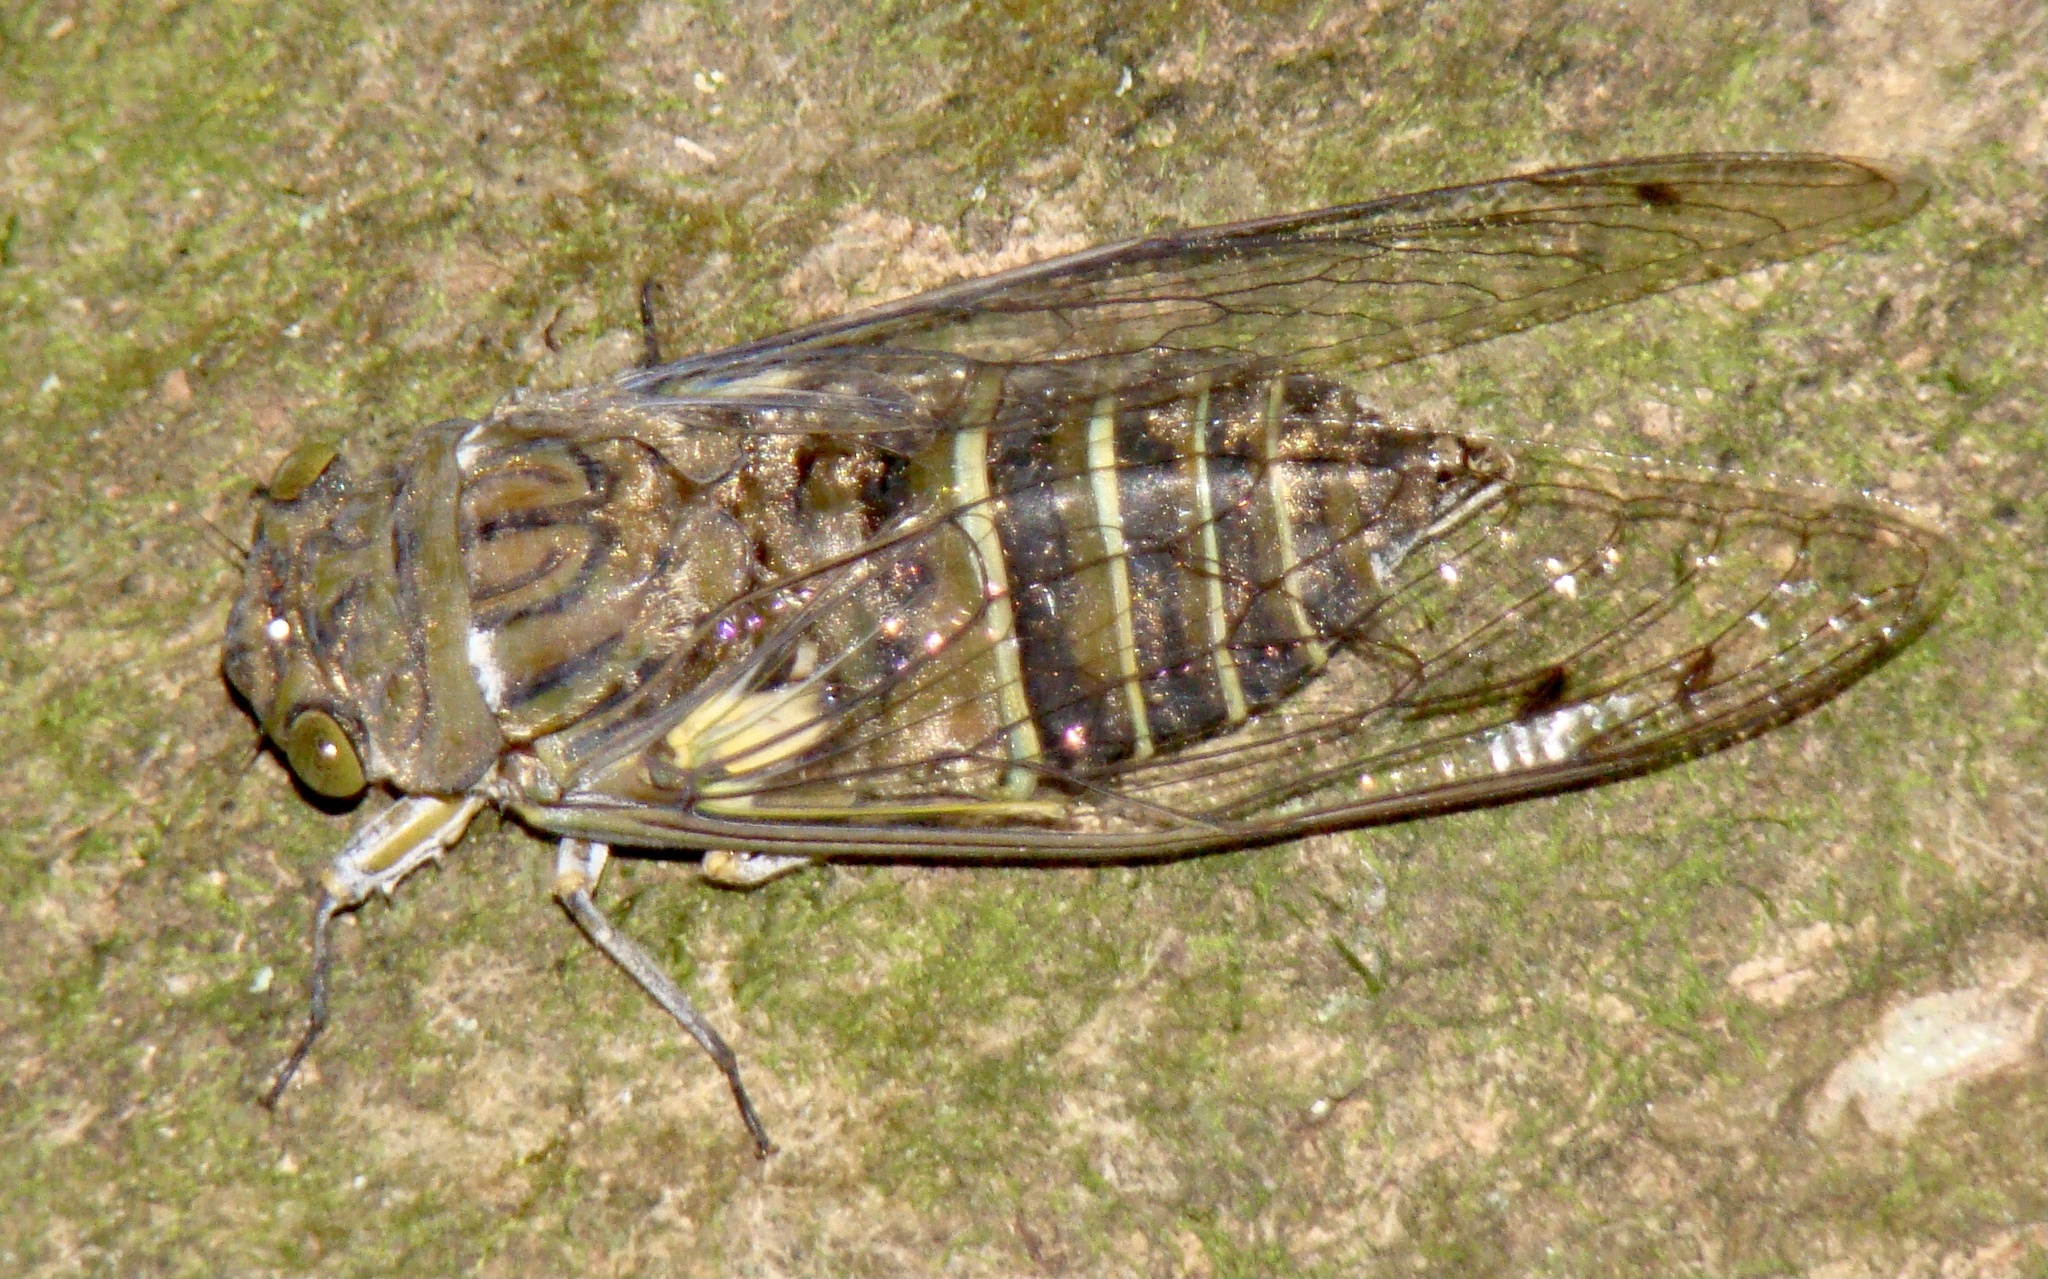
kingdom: Animalia
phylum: Arthropoda
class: Insecta
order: Hemiptera
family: Cicadidae
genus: Quesada
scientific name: Quesada gigas
